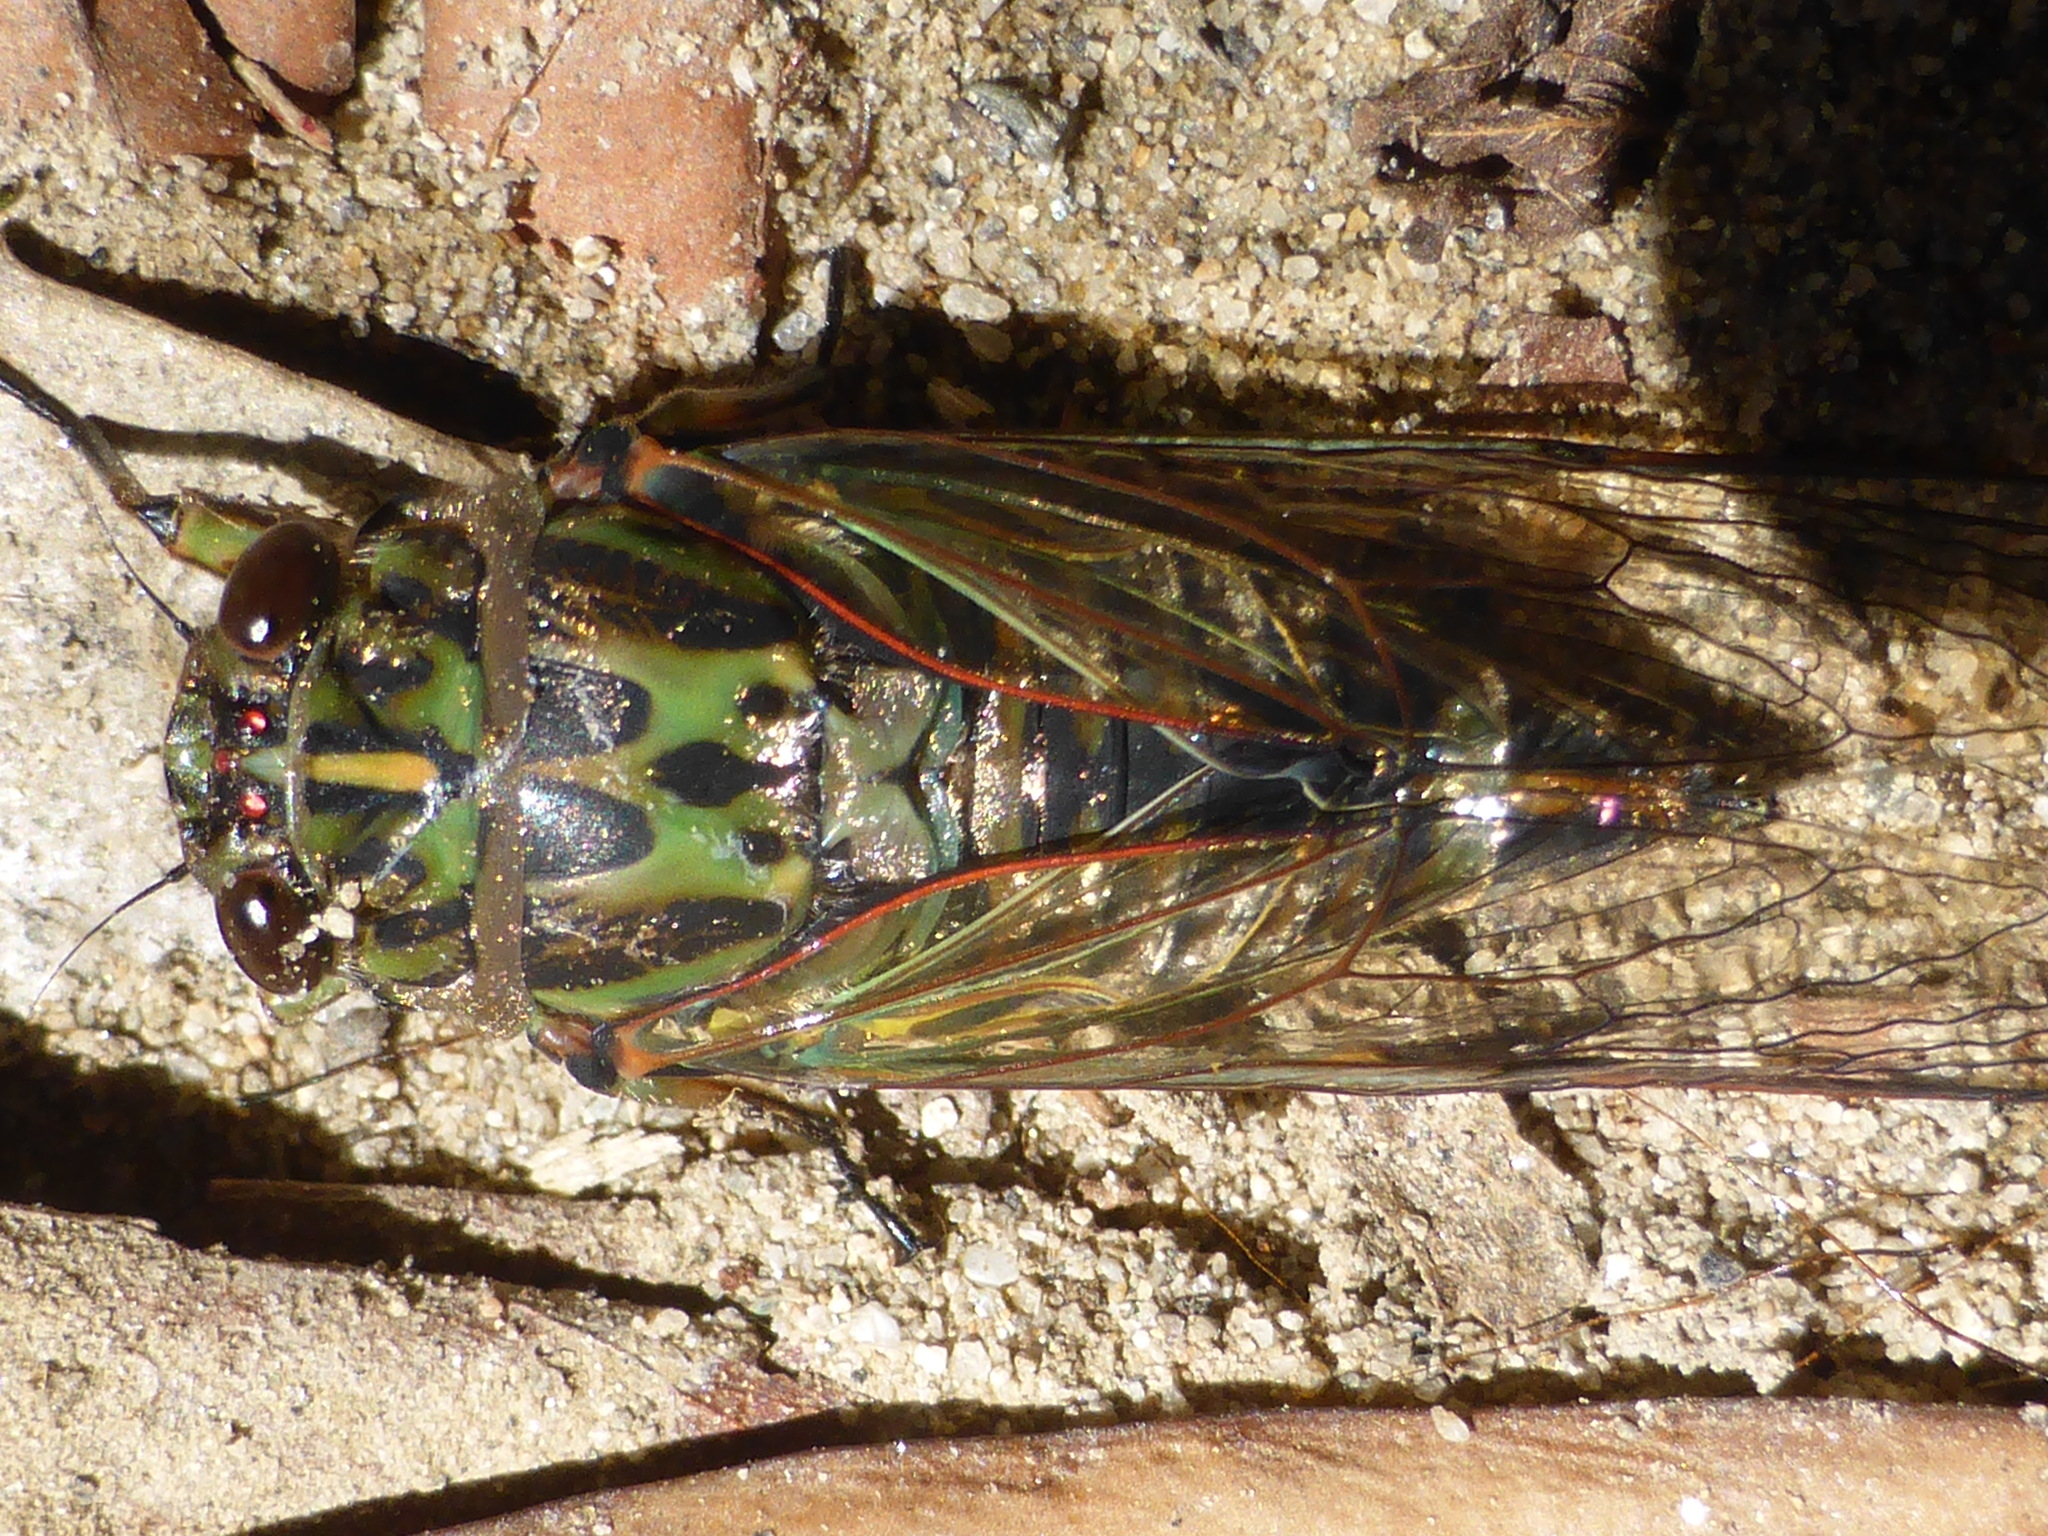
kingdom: Animalia
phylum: Arthropoda
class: Insecta
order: Hemiptera
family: Cicadidae
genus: Amphipsalta
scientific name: Amphipsalta zelandica
